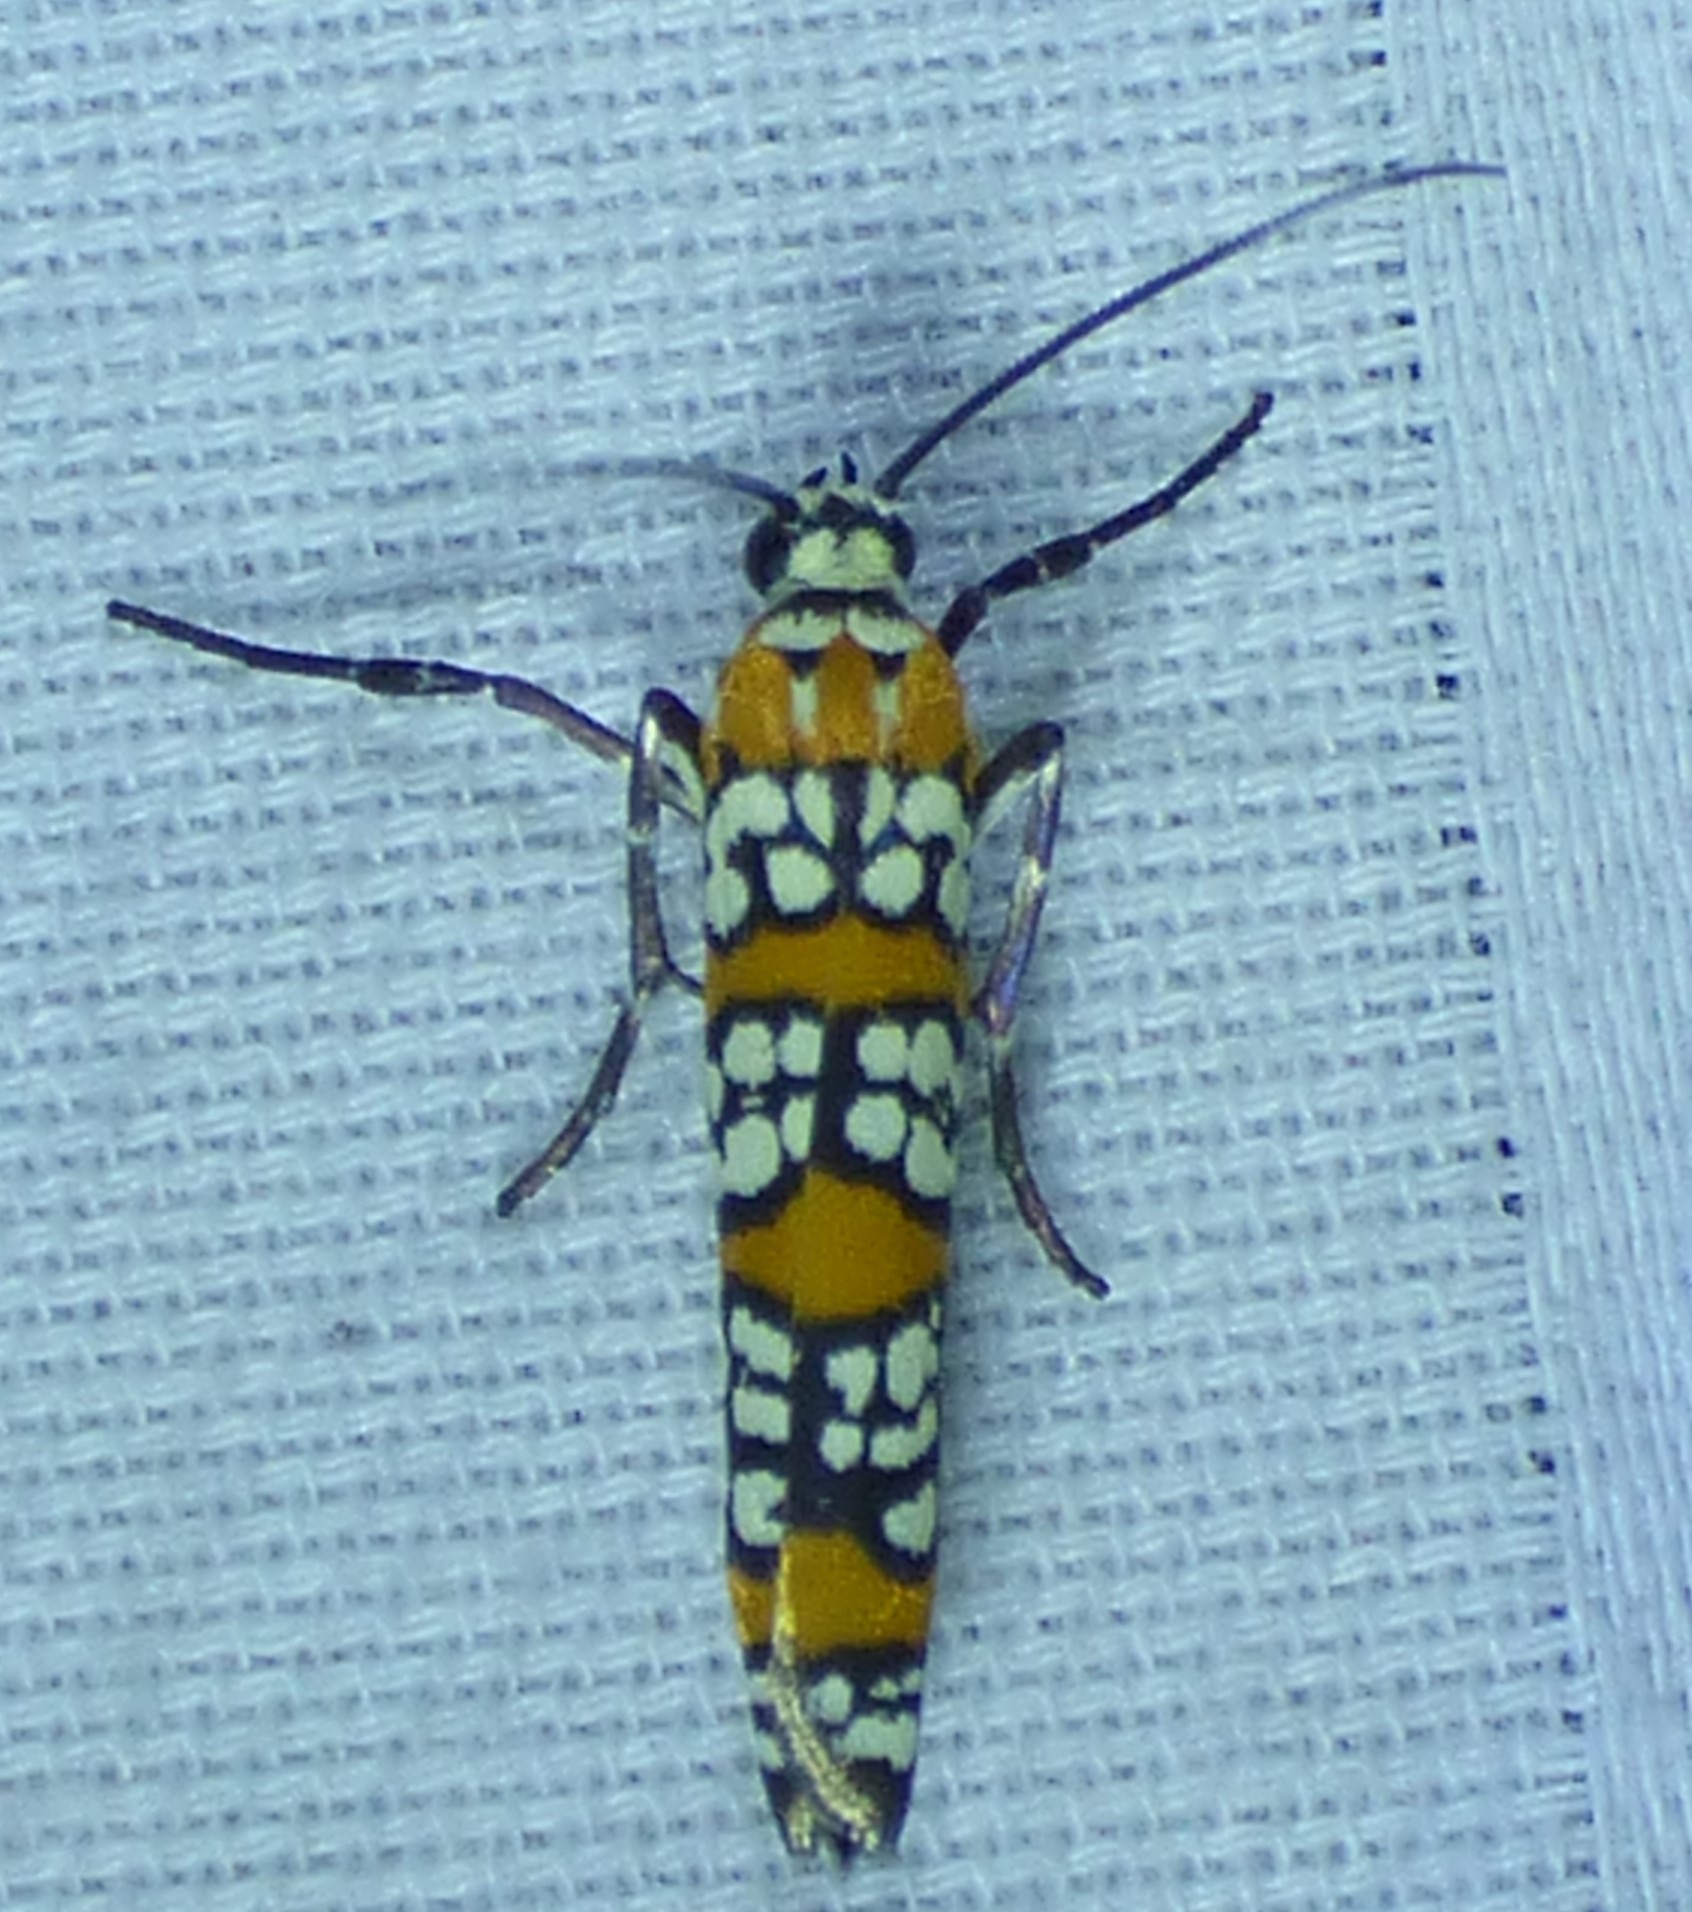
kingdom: Animalia
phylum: Arthropoda
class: Insecta
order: Lepidoptera
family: Attevidae
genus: Atteva
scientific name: Atteva punctella
